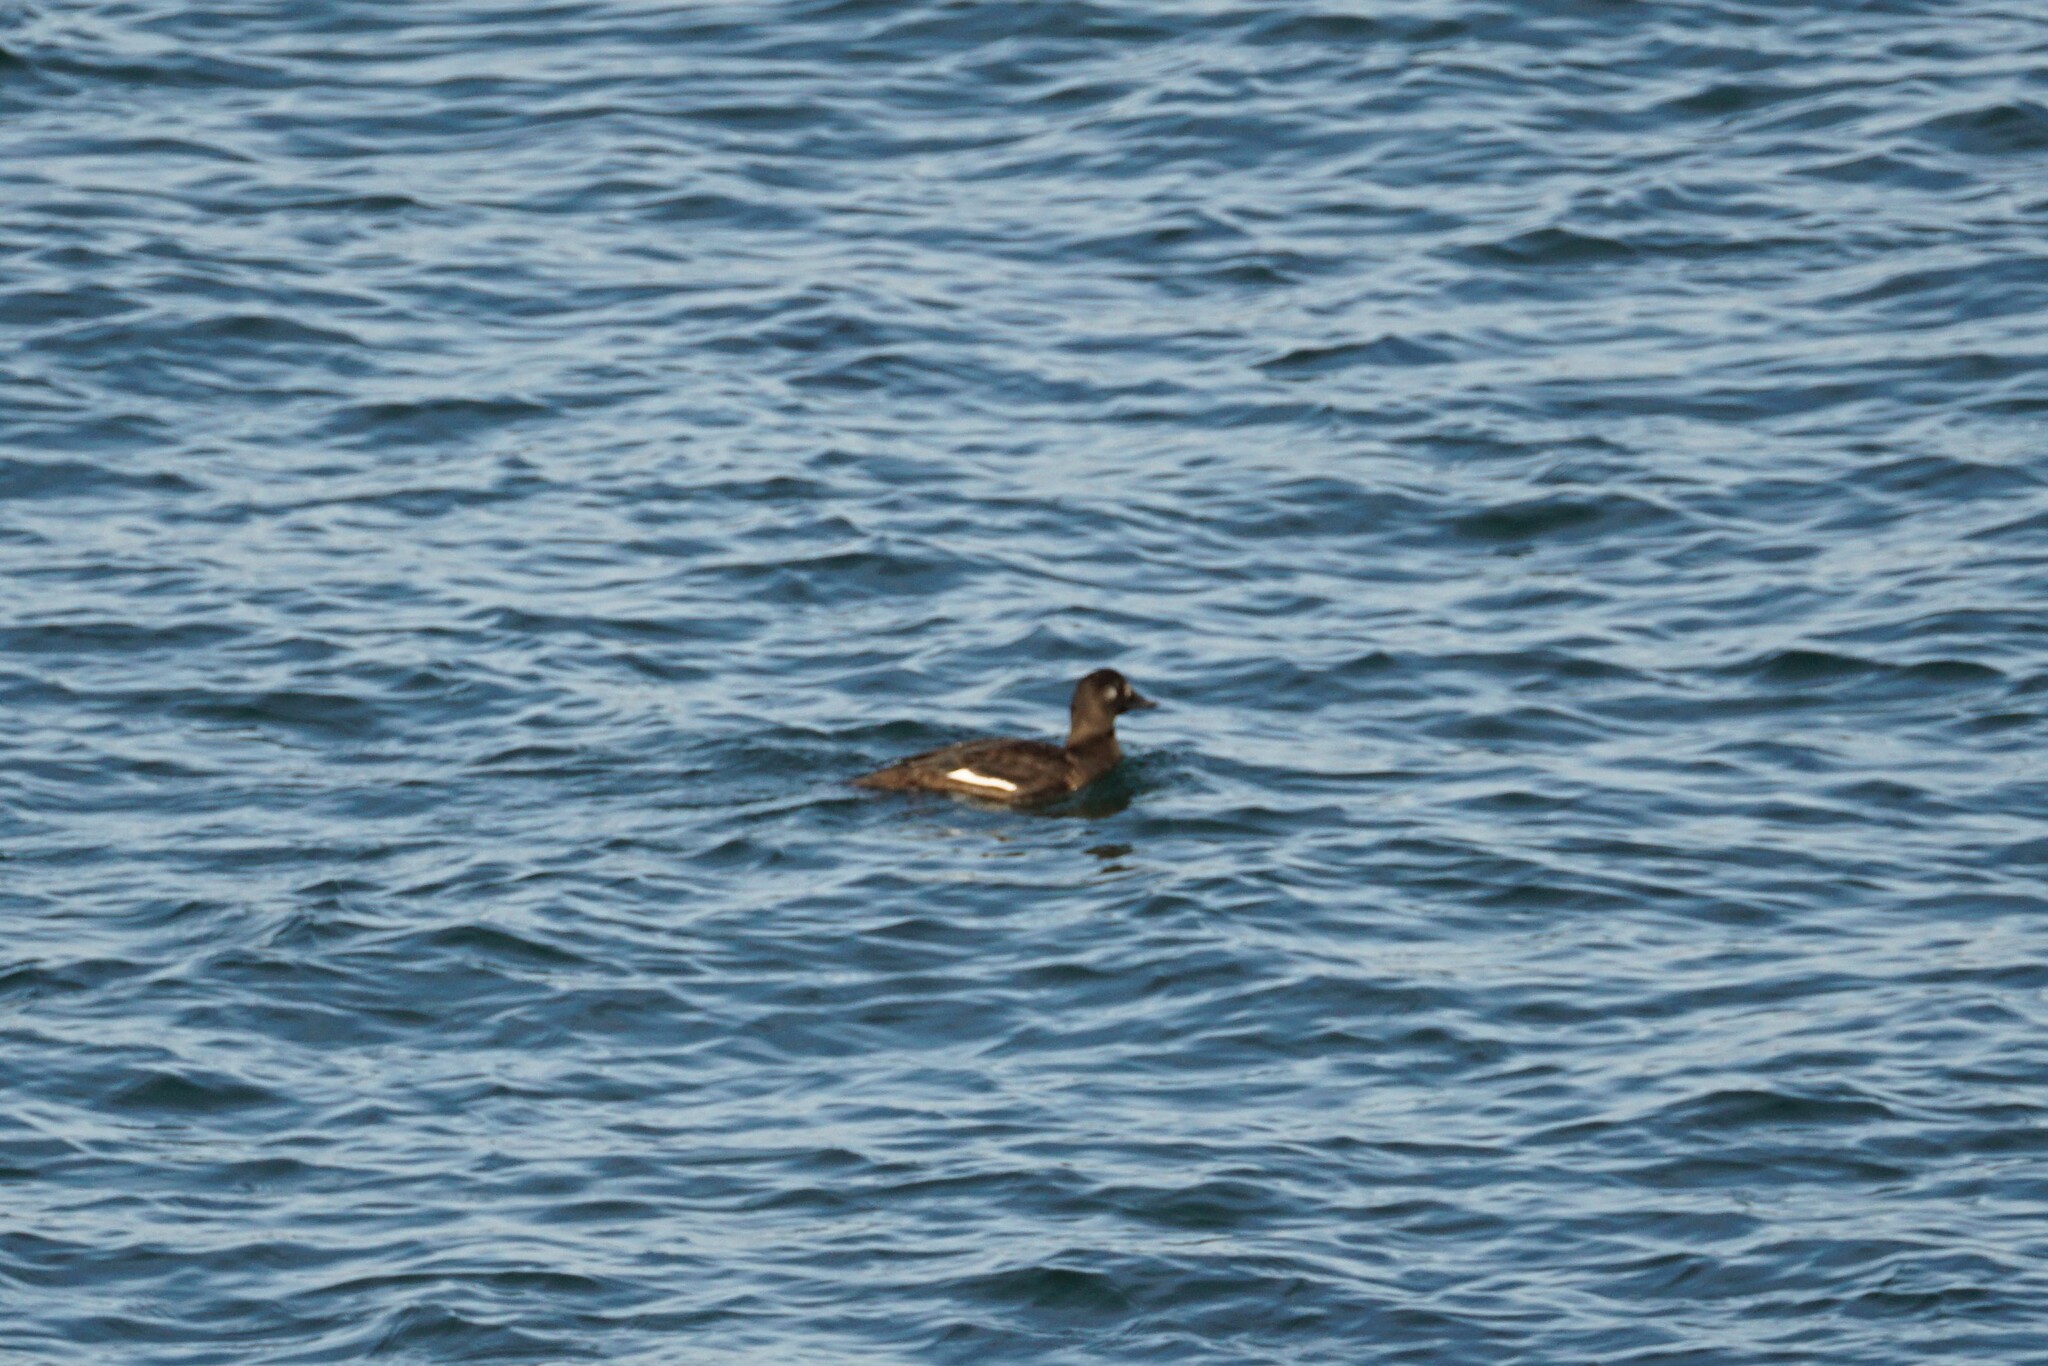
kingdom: Animalia
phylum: Chordata
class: Aves
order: Anseriformes
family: Anatidae
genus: Melanitta
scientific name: Melanitta deglandi
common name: White-winged scoter
